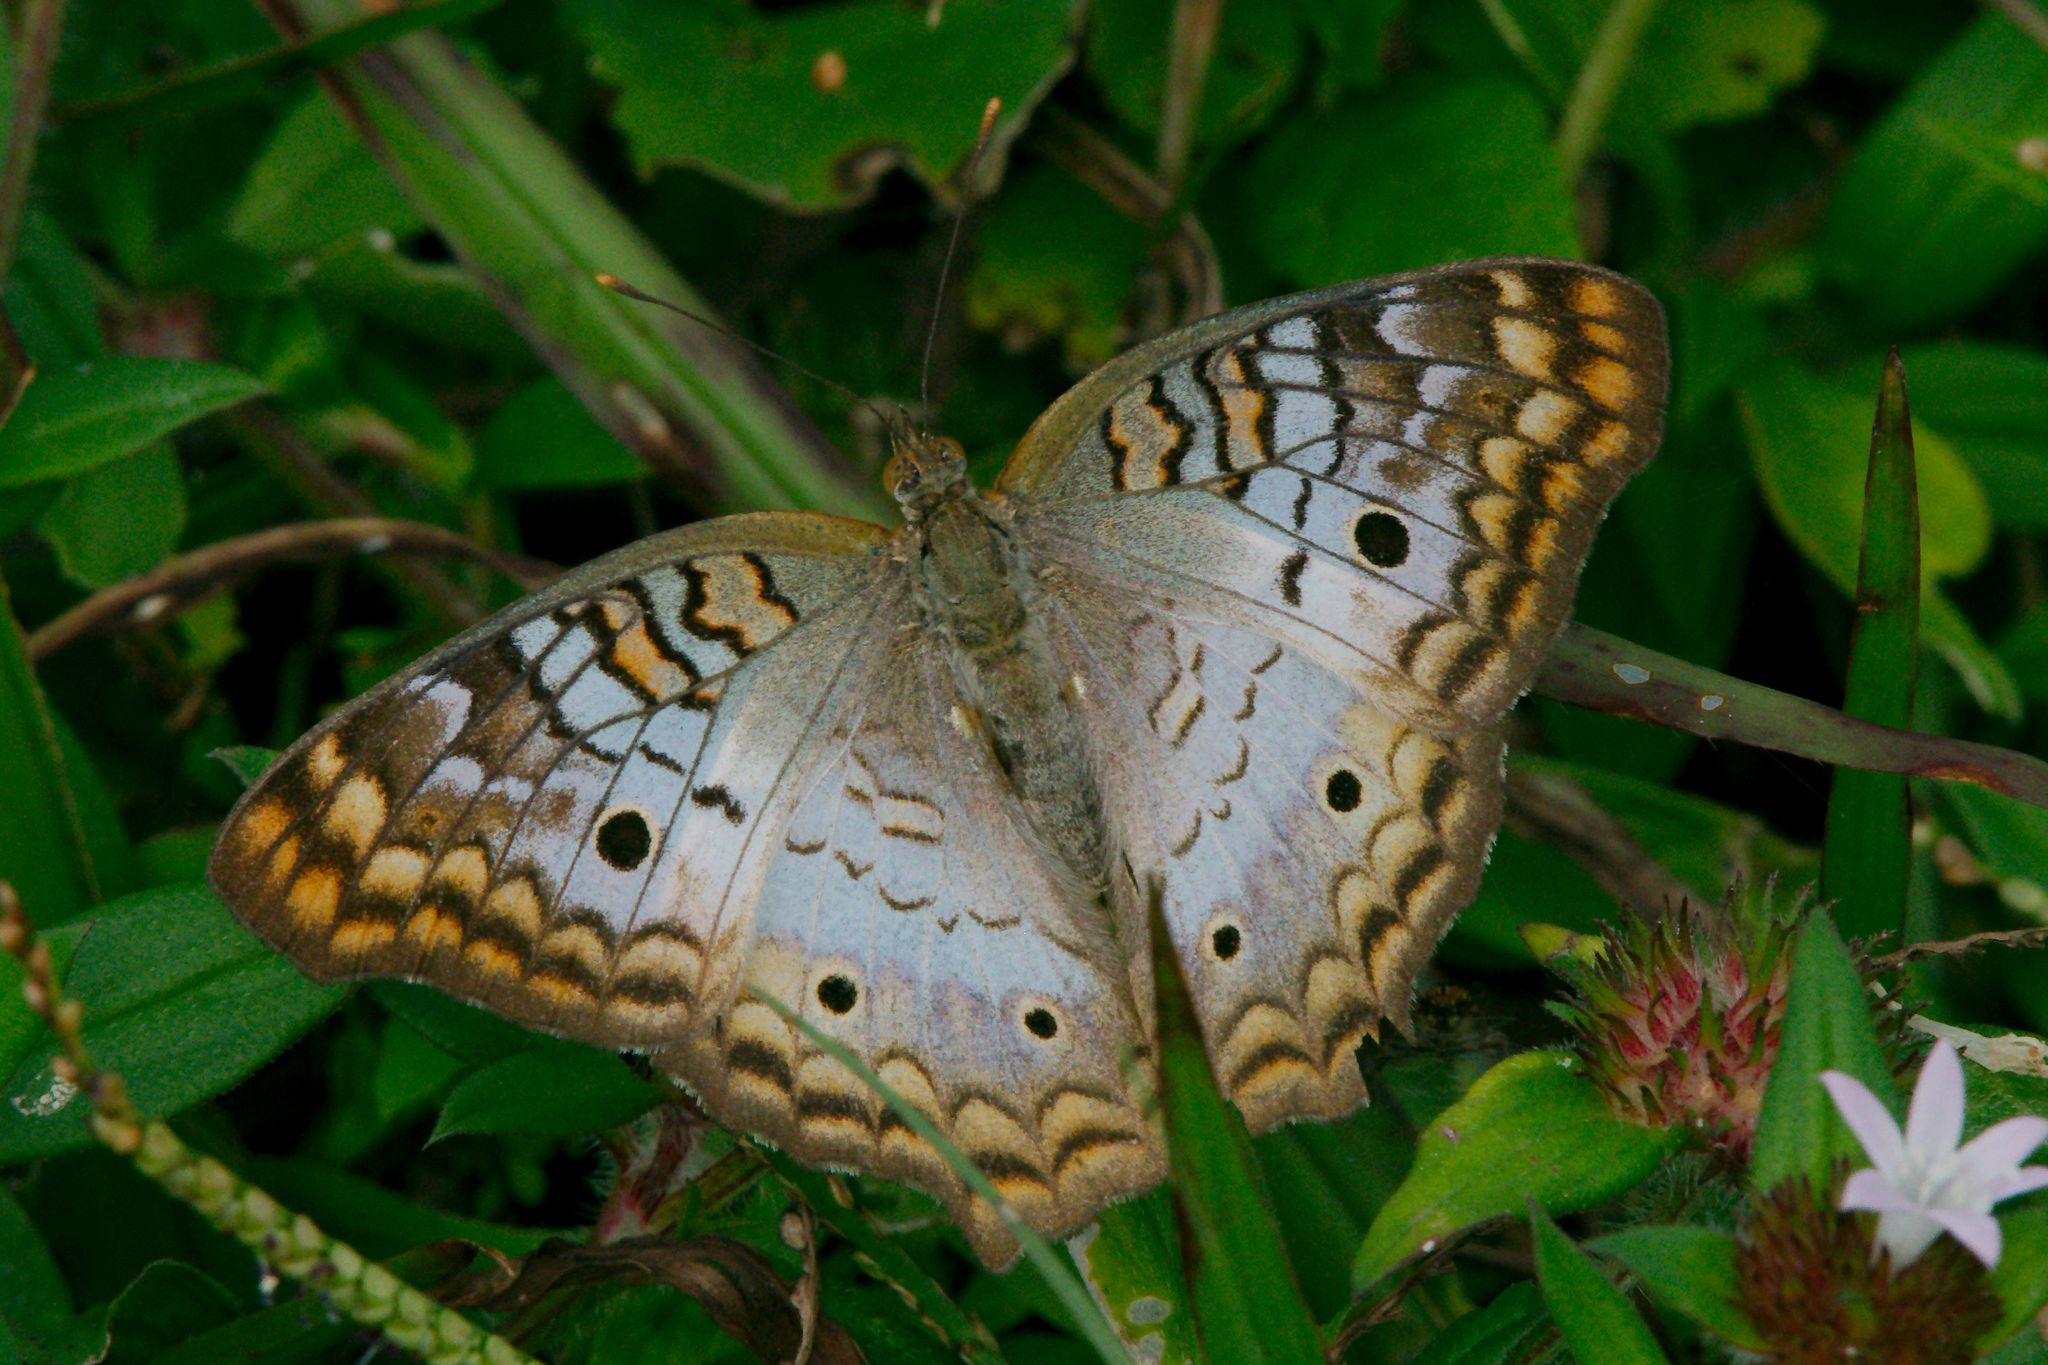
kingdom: Animalia
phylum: Arthropoda
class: Insecta
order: Lepidoptera
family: Nymphalidae
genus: Anartia
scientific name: Anartia jatrophae
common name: White peacock
